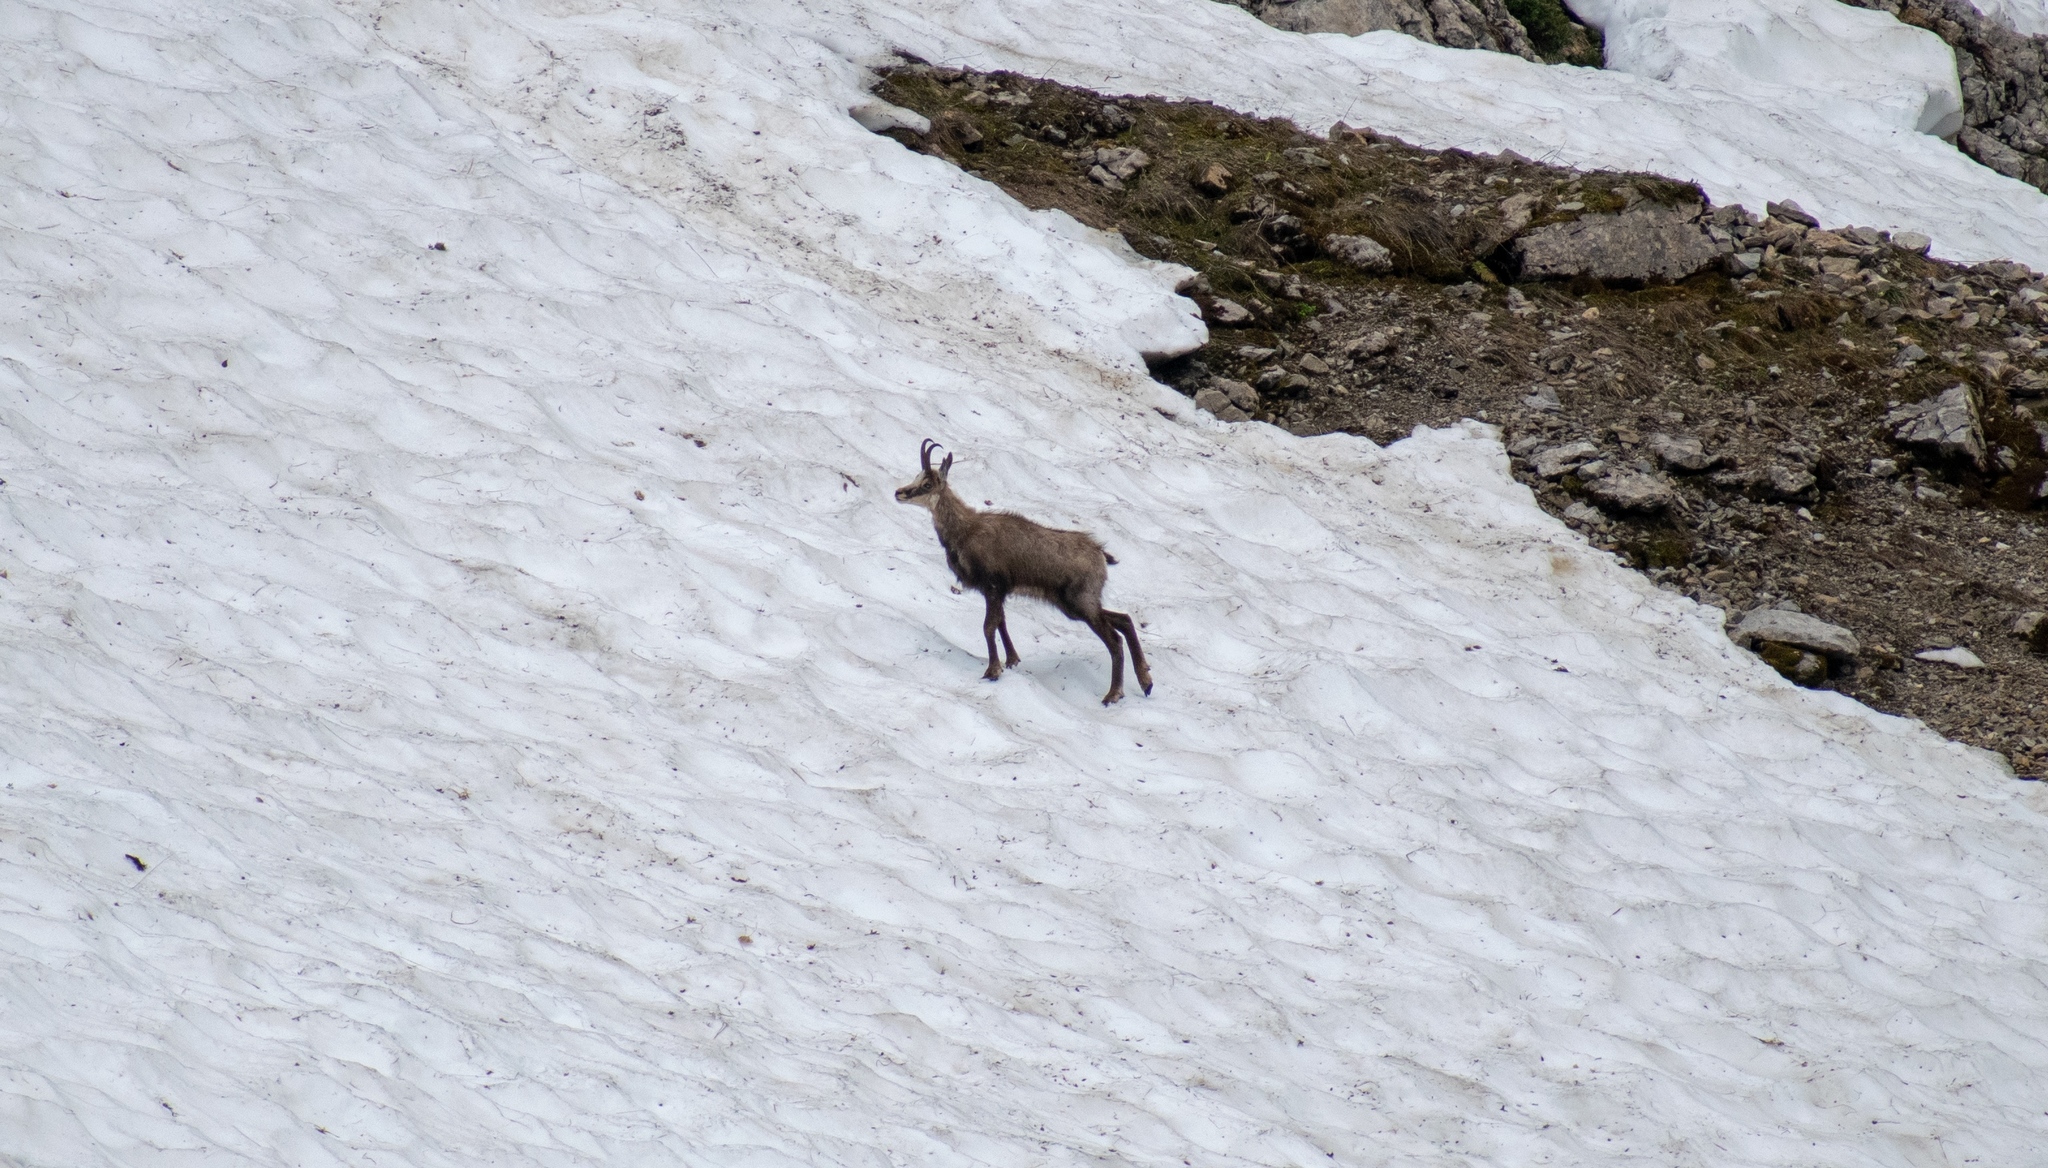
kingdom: Animalia
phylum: Chordata
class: Mammalia
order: Artiodactyla
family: Bovidae
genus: Rupicapra
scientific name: Rupicapra rupicapra
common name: Chamois
